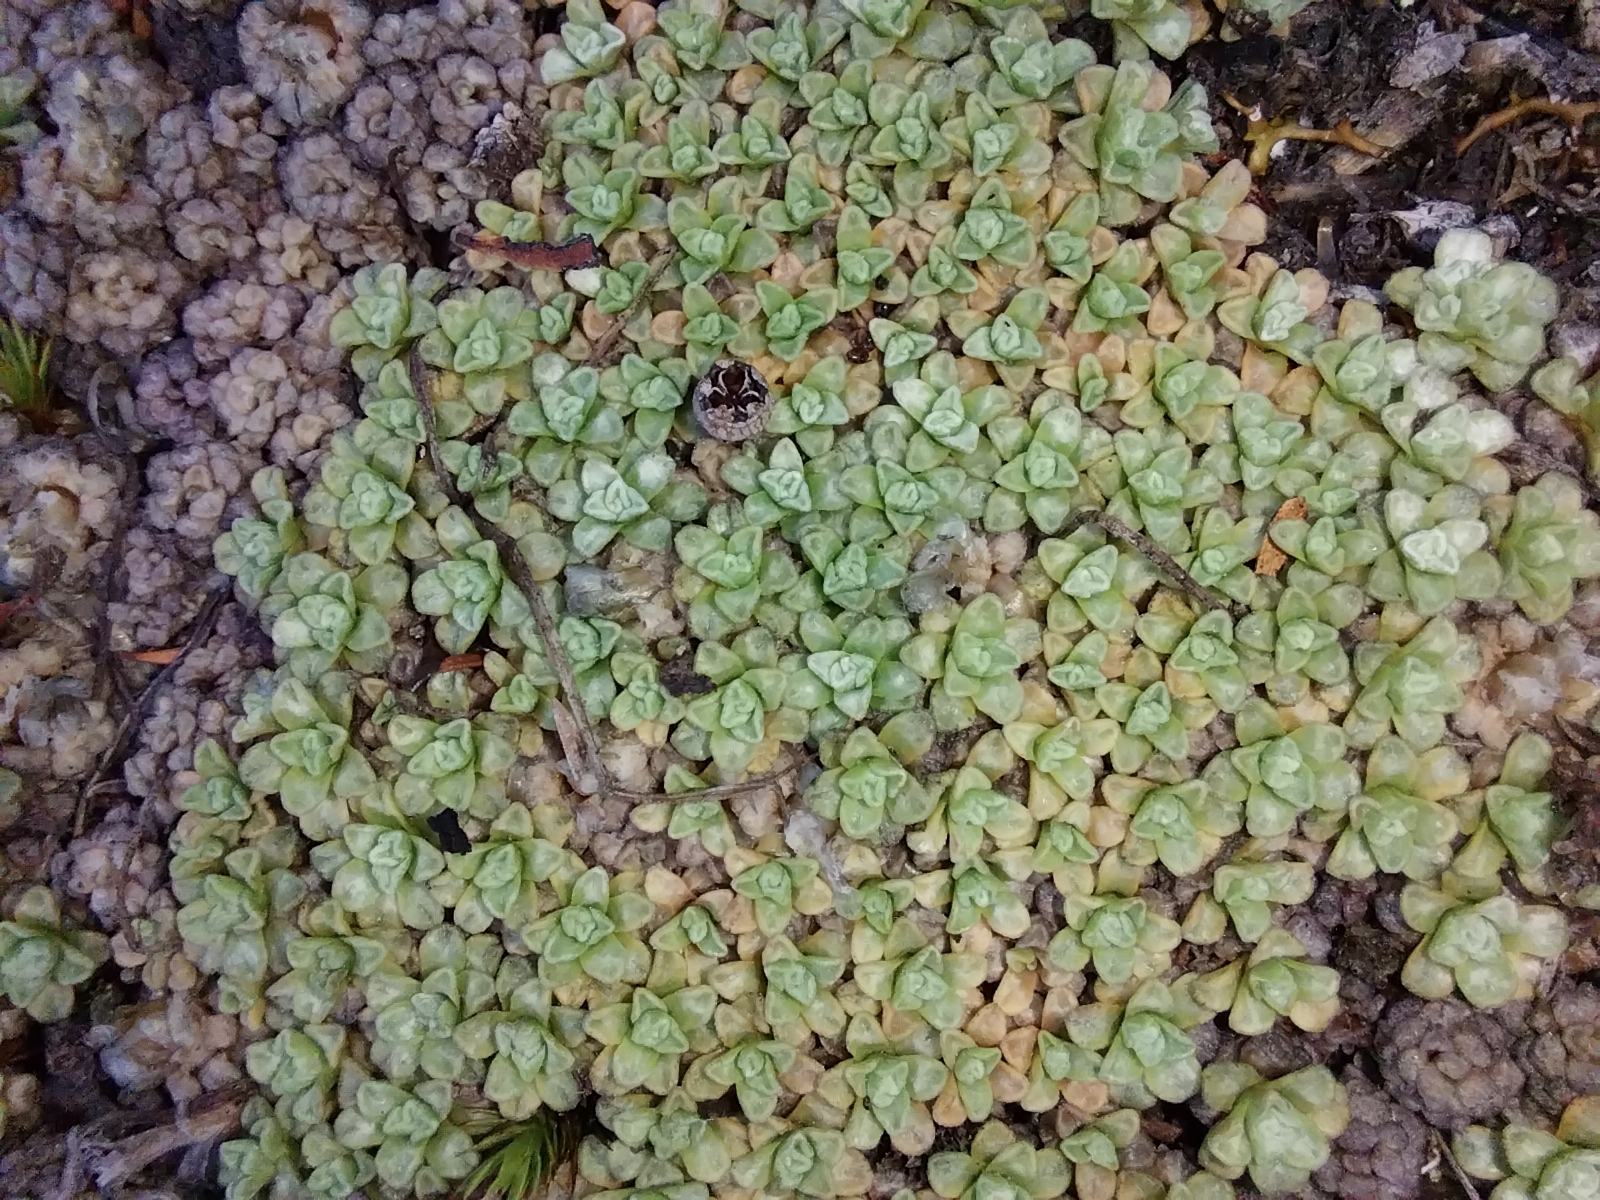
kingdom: Plantae
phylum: Tracheophyta
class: Magnoliopsida
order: Asterales
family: Asteraceae
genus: Raoulia
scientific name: Raoulia parkii
